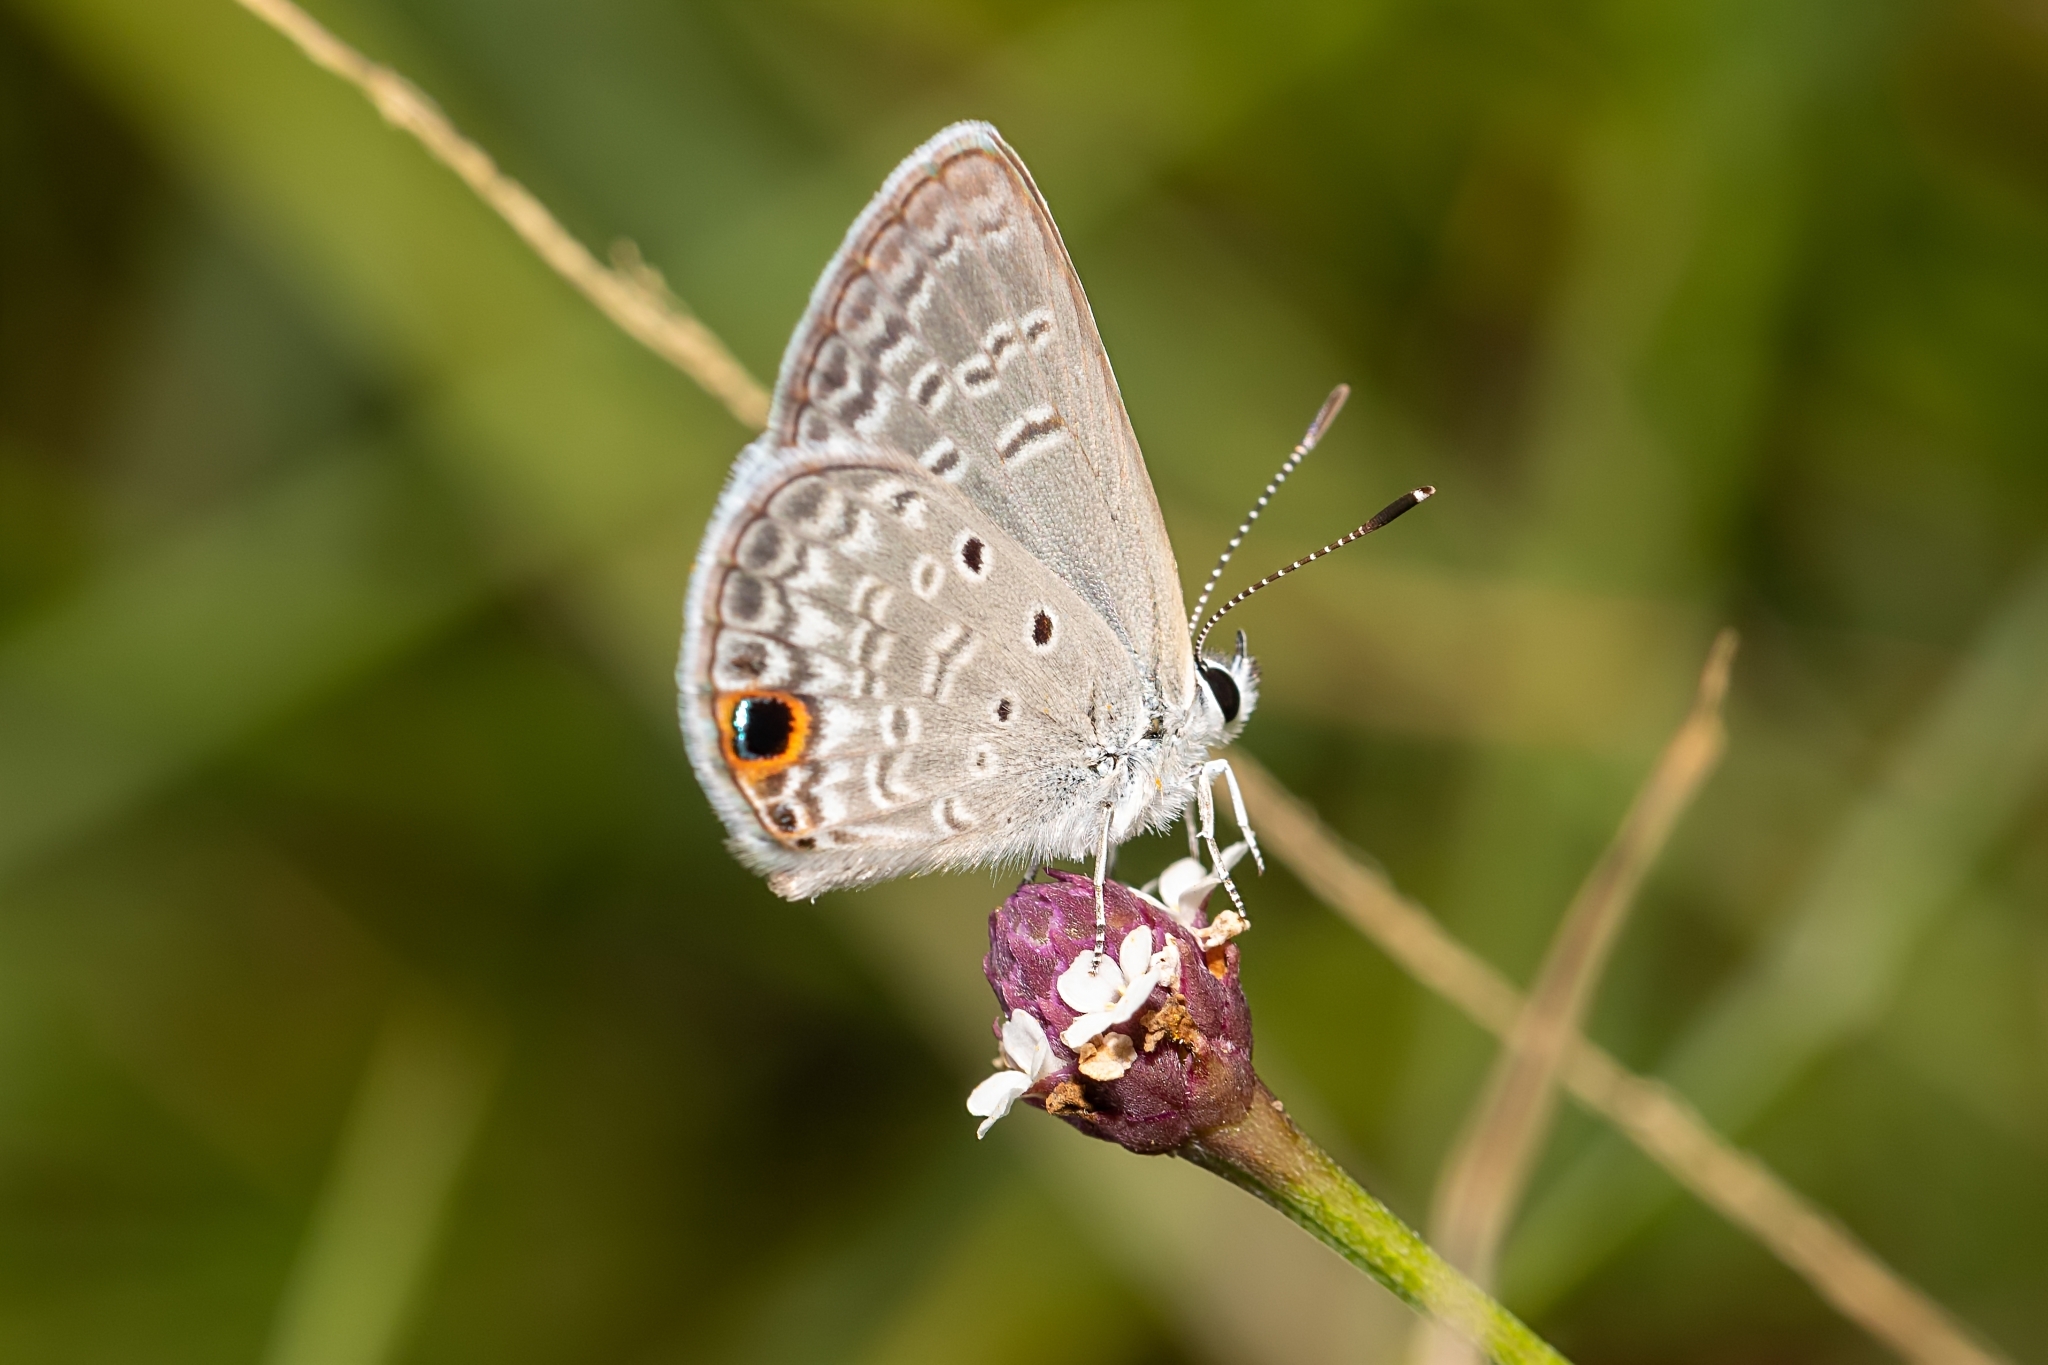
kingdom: Animalia
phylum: Arthropoda
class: Insecta
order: Lepidoptera
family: Lycaenidae
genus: Hemiargus
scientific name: Hemiargus ceraunus
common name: Ceraunus blue
